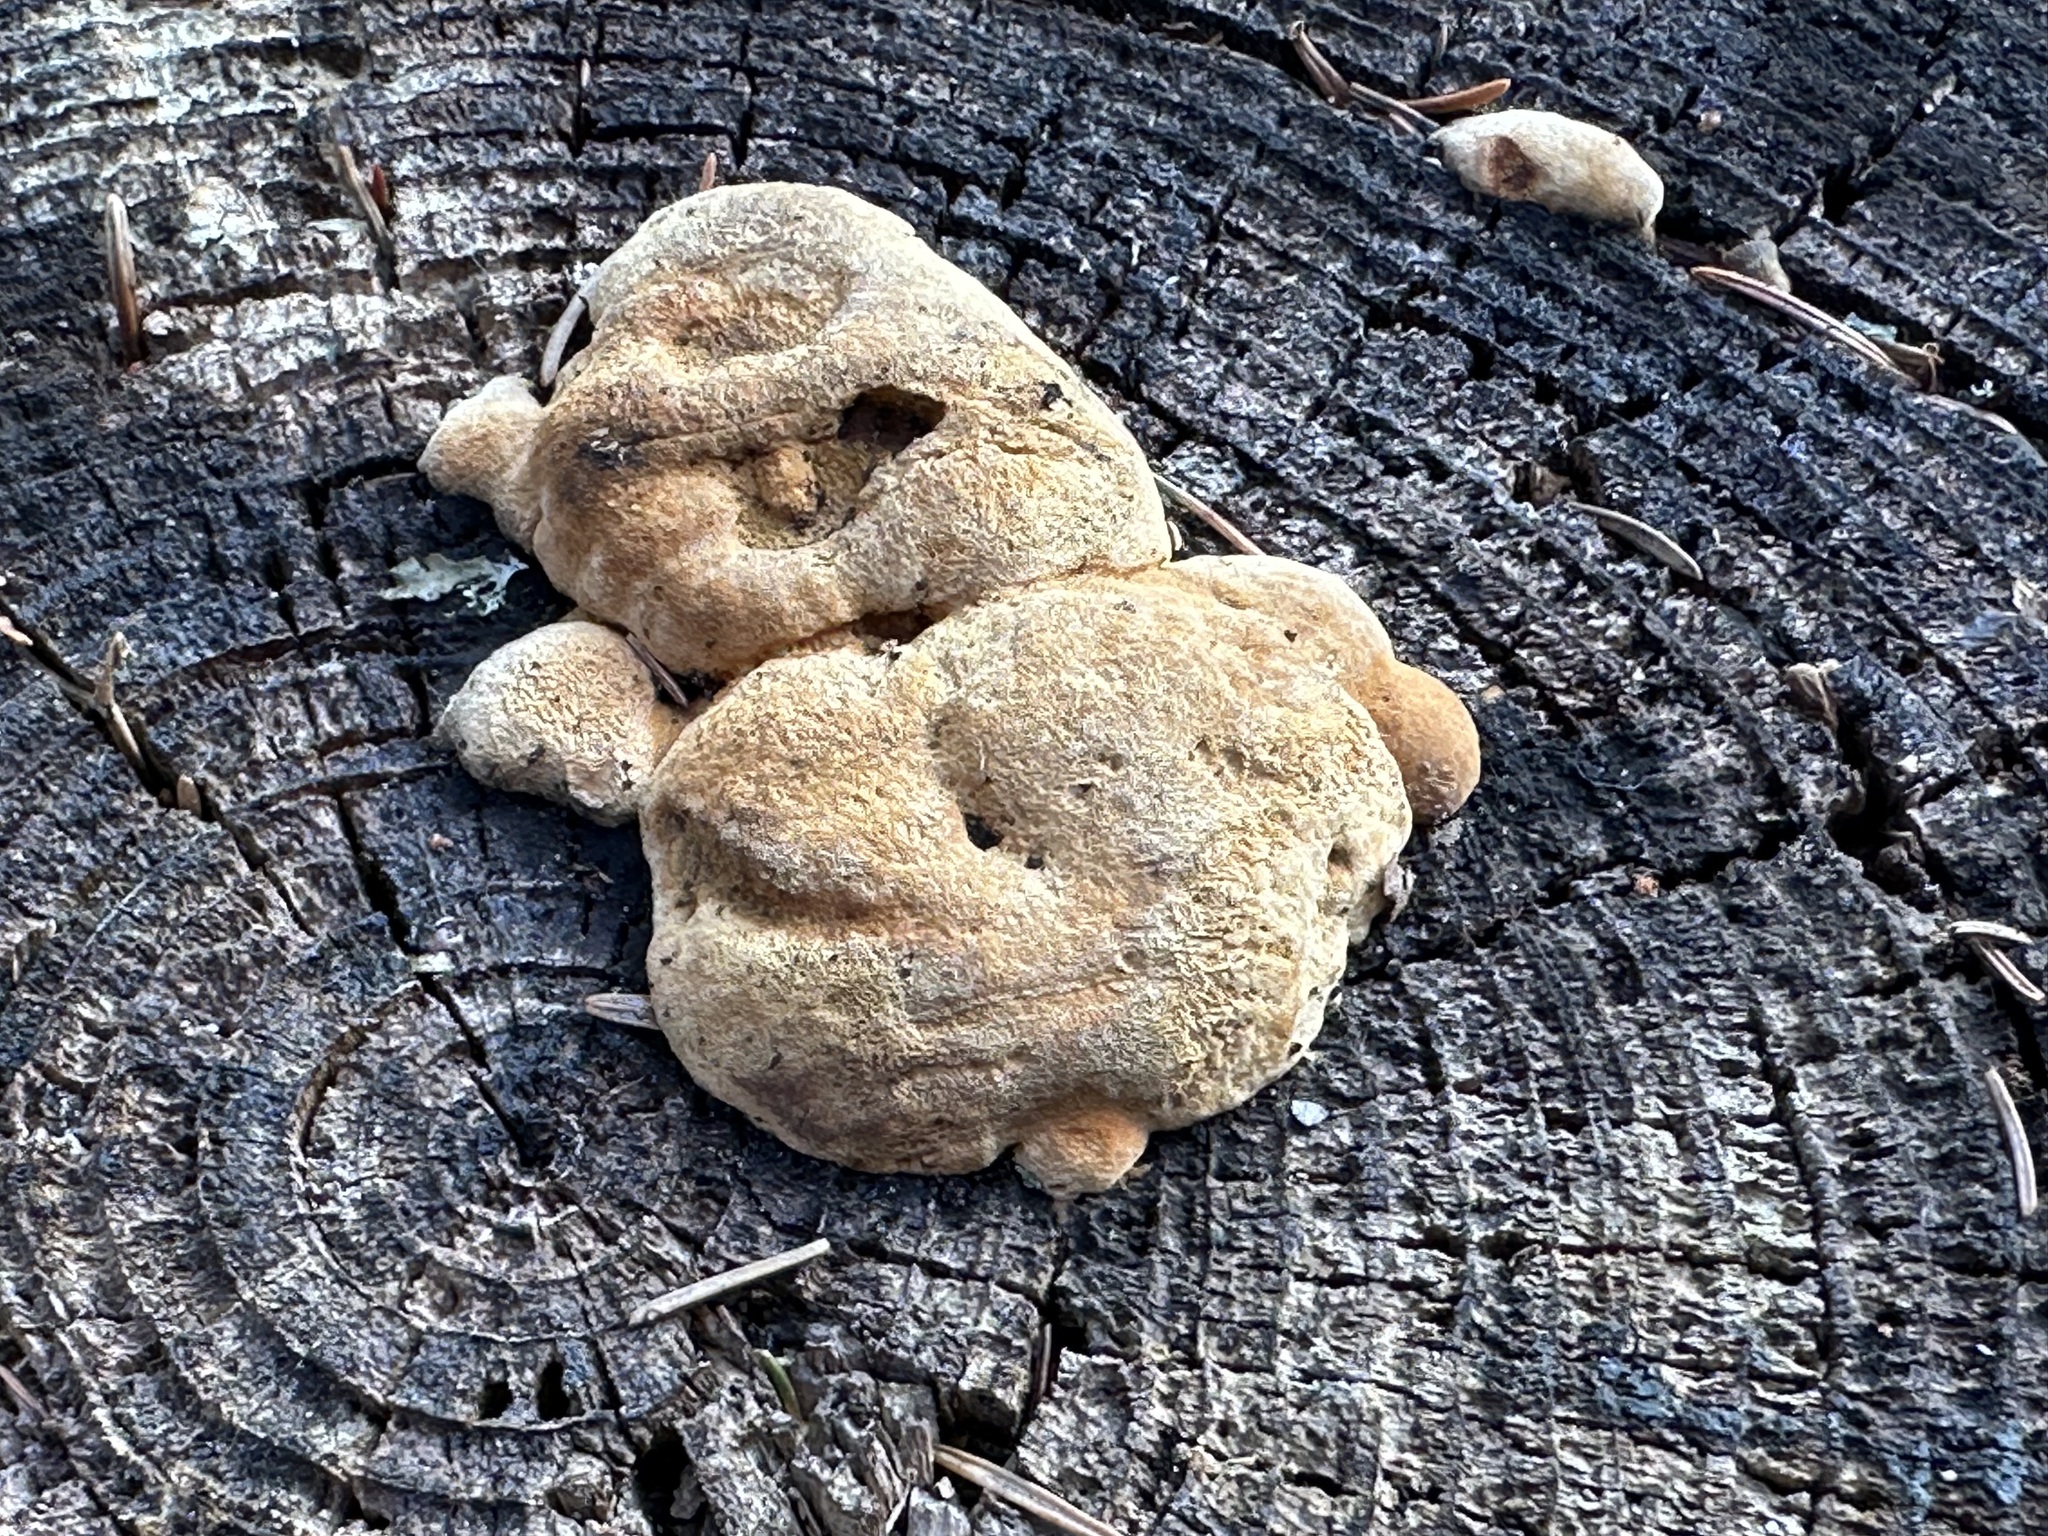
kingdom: Fungi
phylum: Basidiomycota
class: Agaricomycetes
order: Gloeophyllales
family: Gloeophyllaceae
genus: Gloeophyllum
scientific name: Gloeophyllum odoratum
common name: Anise mazegill
